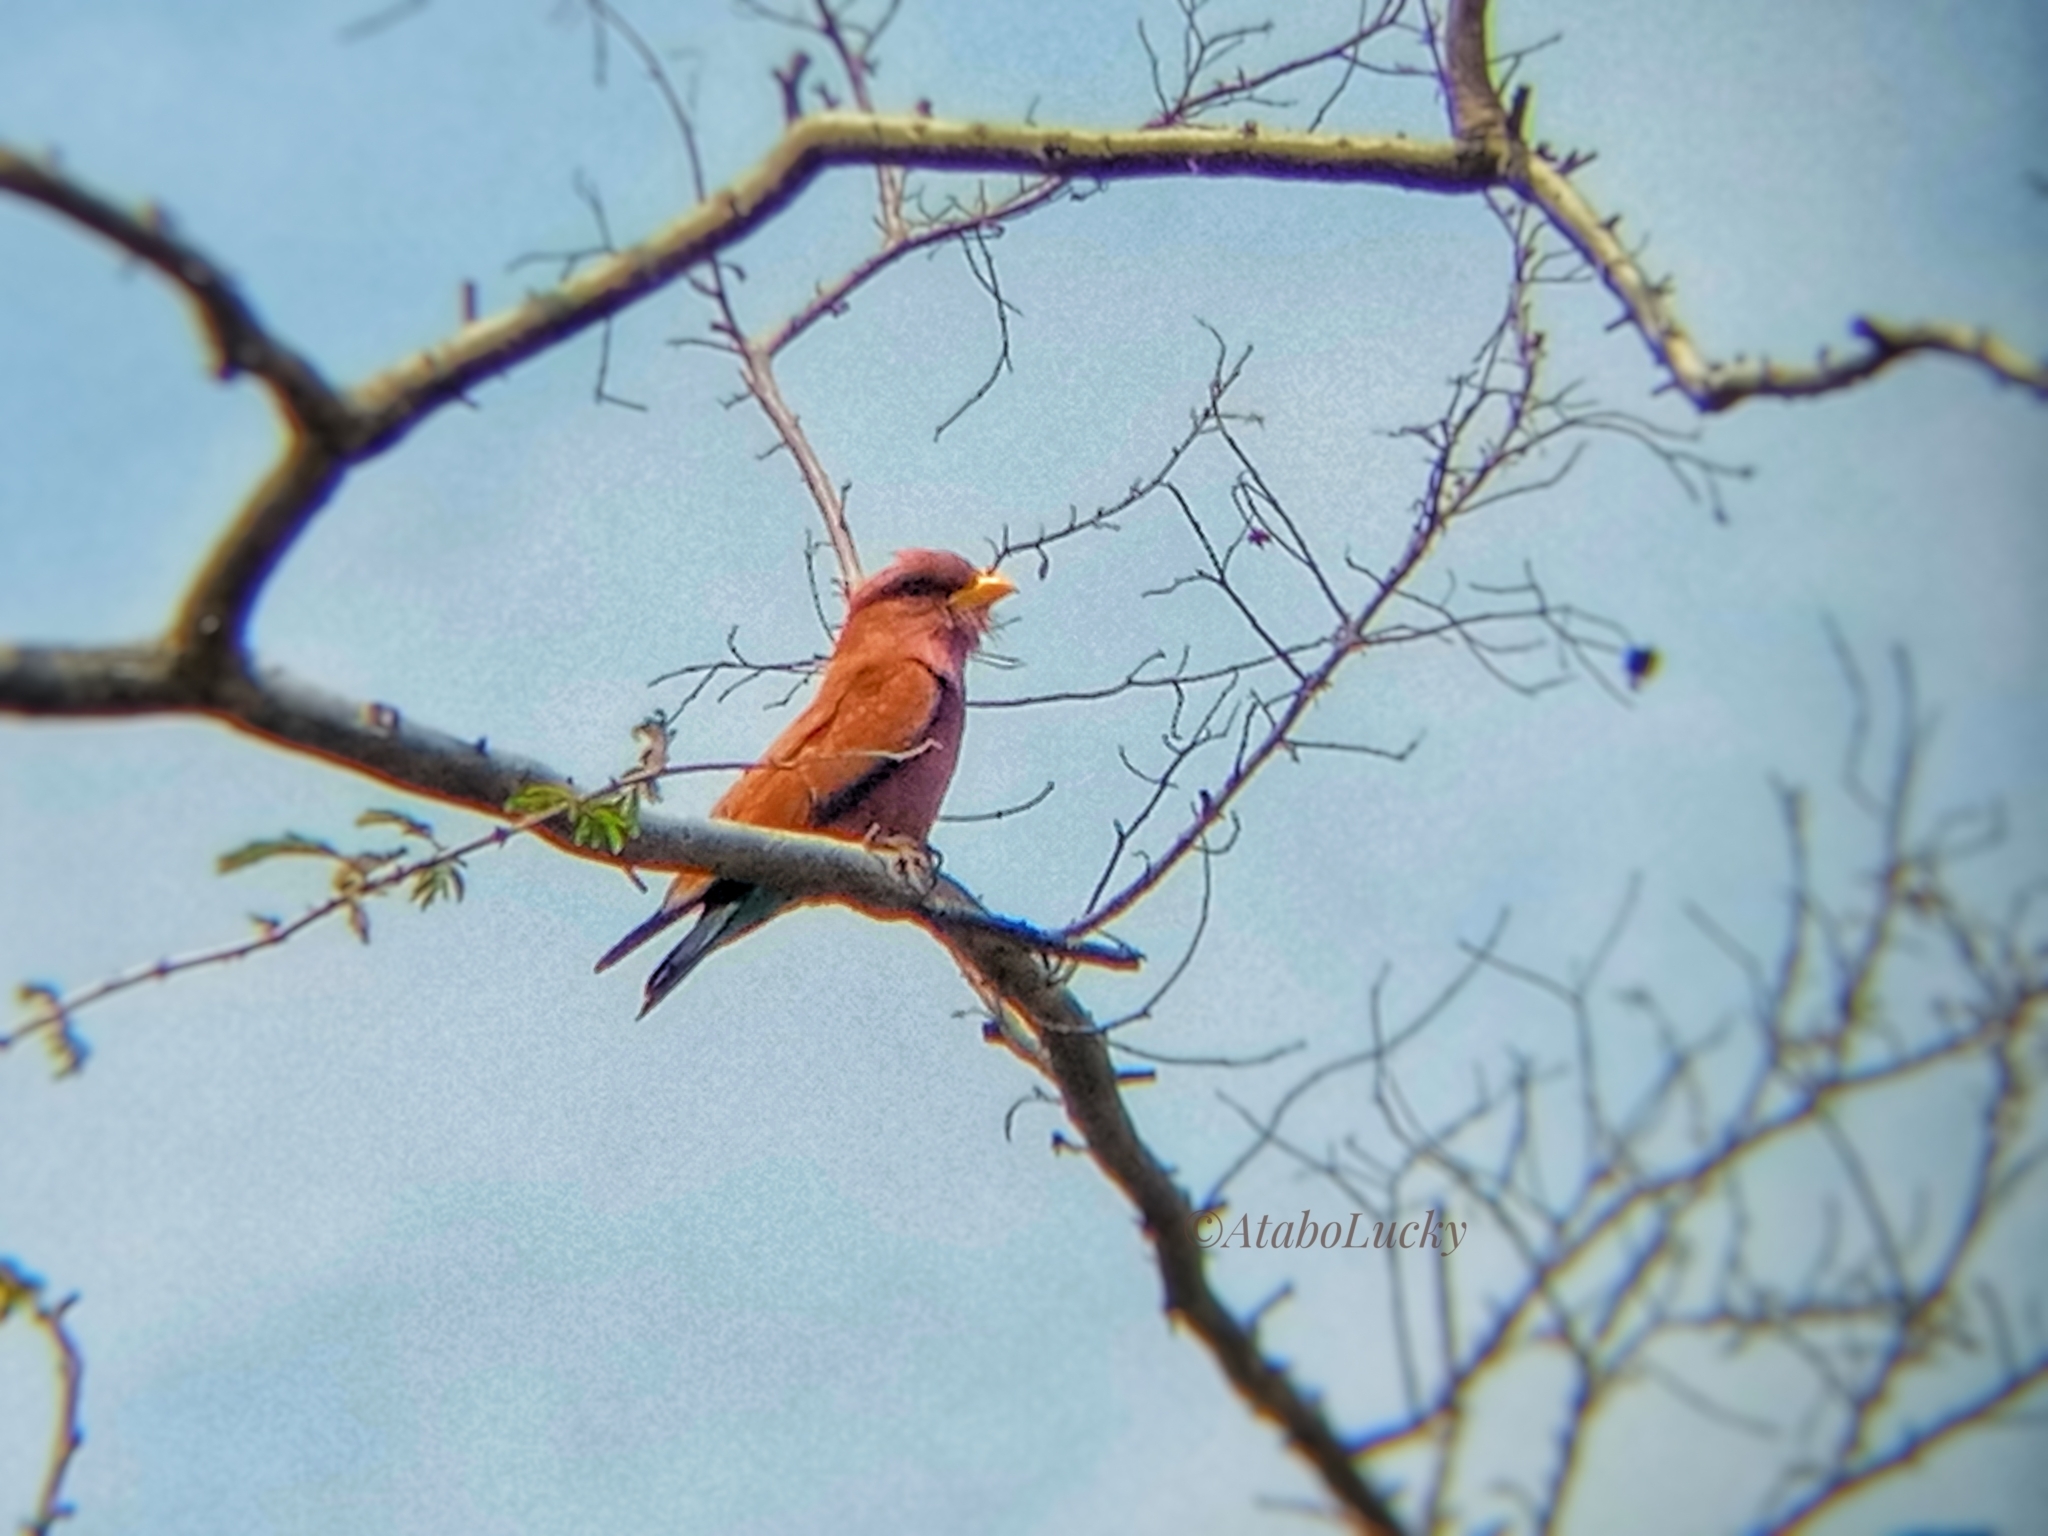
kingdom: Animalia
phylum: Chordata
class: Aves
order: Coraciiformes
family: Coraciidae
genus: Eurystomus
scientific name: Eurystomus glaucurus
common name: Broad-billed roller
